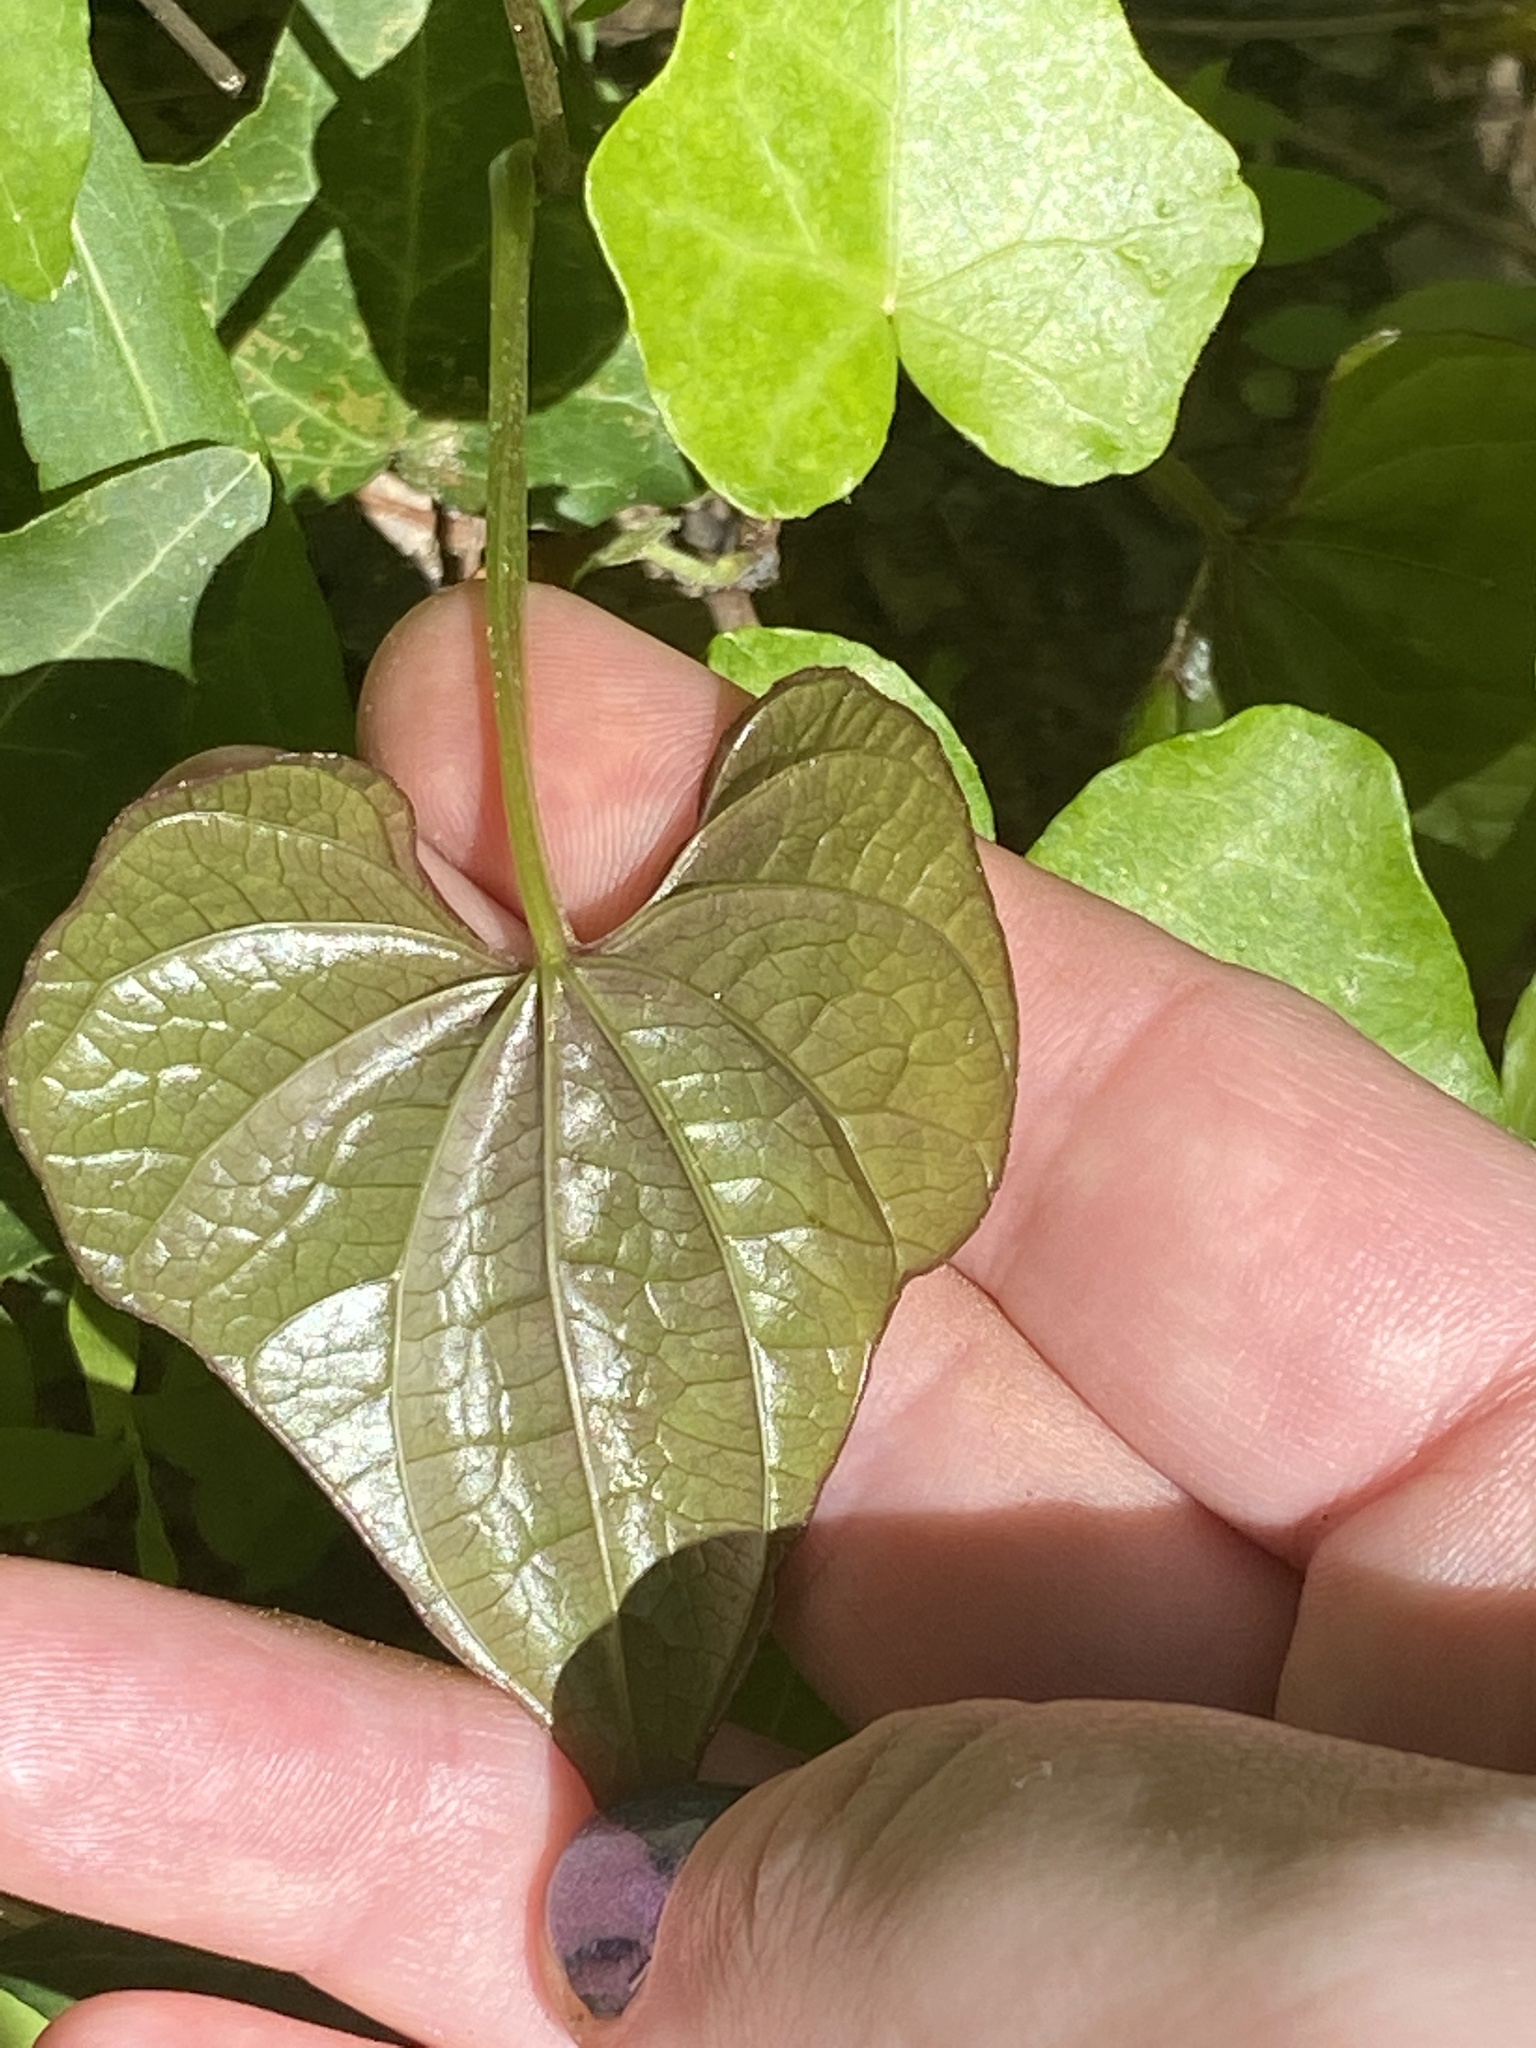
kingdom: Plantae
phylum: Tracheophyta
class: Liliopsida
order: Dioscoreales
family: Dioscoreaceae
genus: Dioscorea
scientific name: Dioscorea polystachya
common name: Chinese yam
